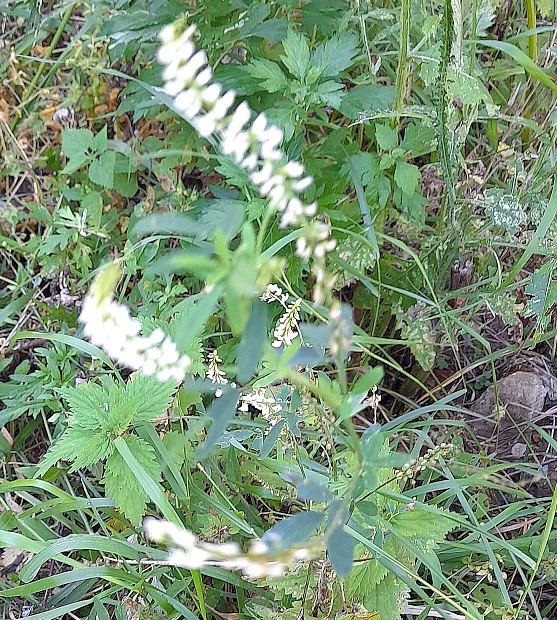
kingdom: Plantae
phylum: Tracheophyta
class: Magnoliopsida
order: Fabales
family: Fabaceae
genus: Melilotus
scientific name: Melilotus albus
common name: White melilot
